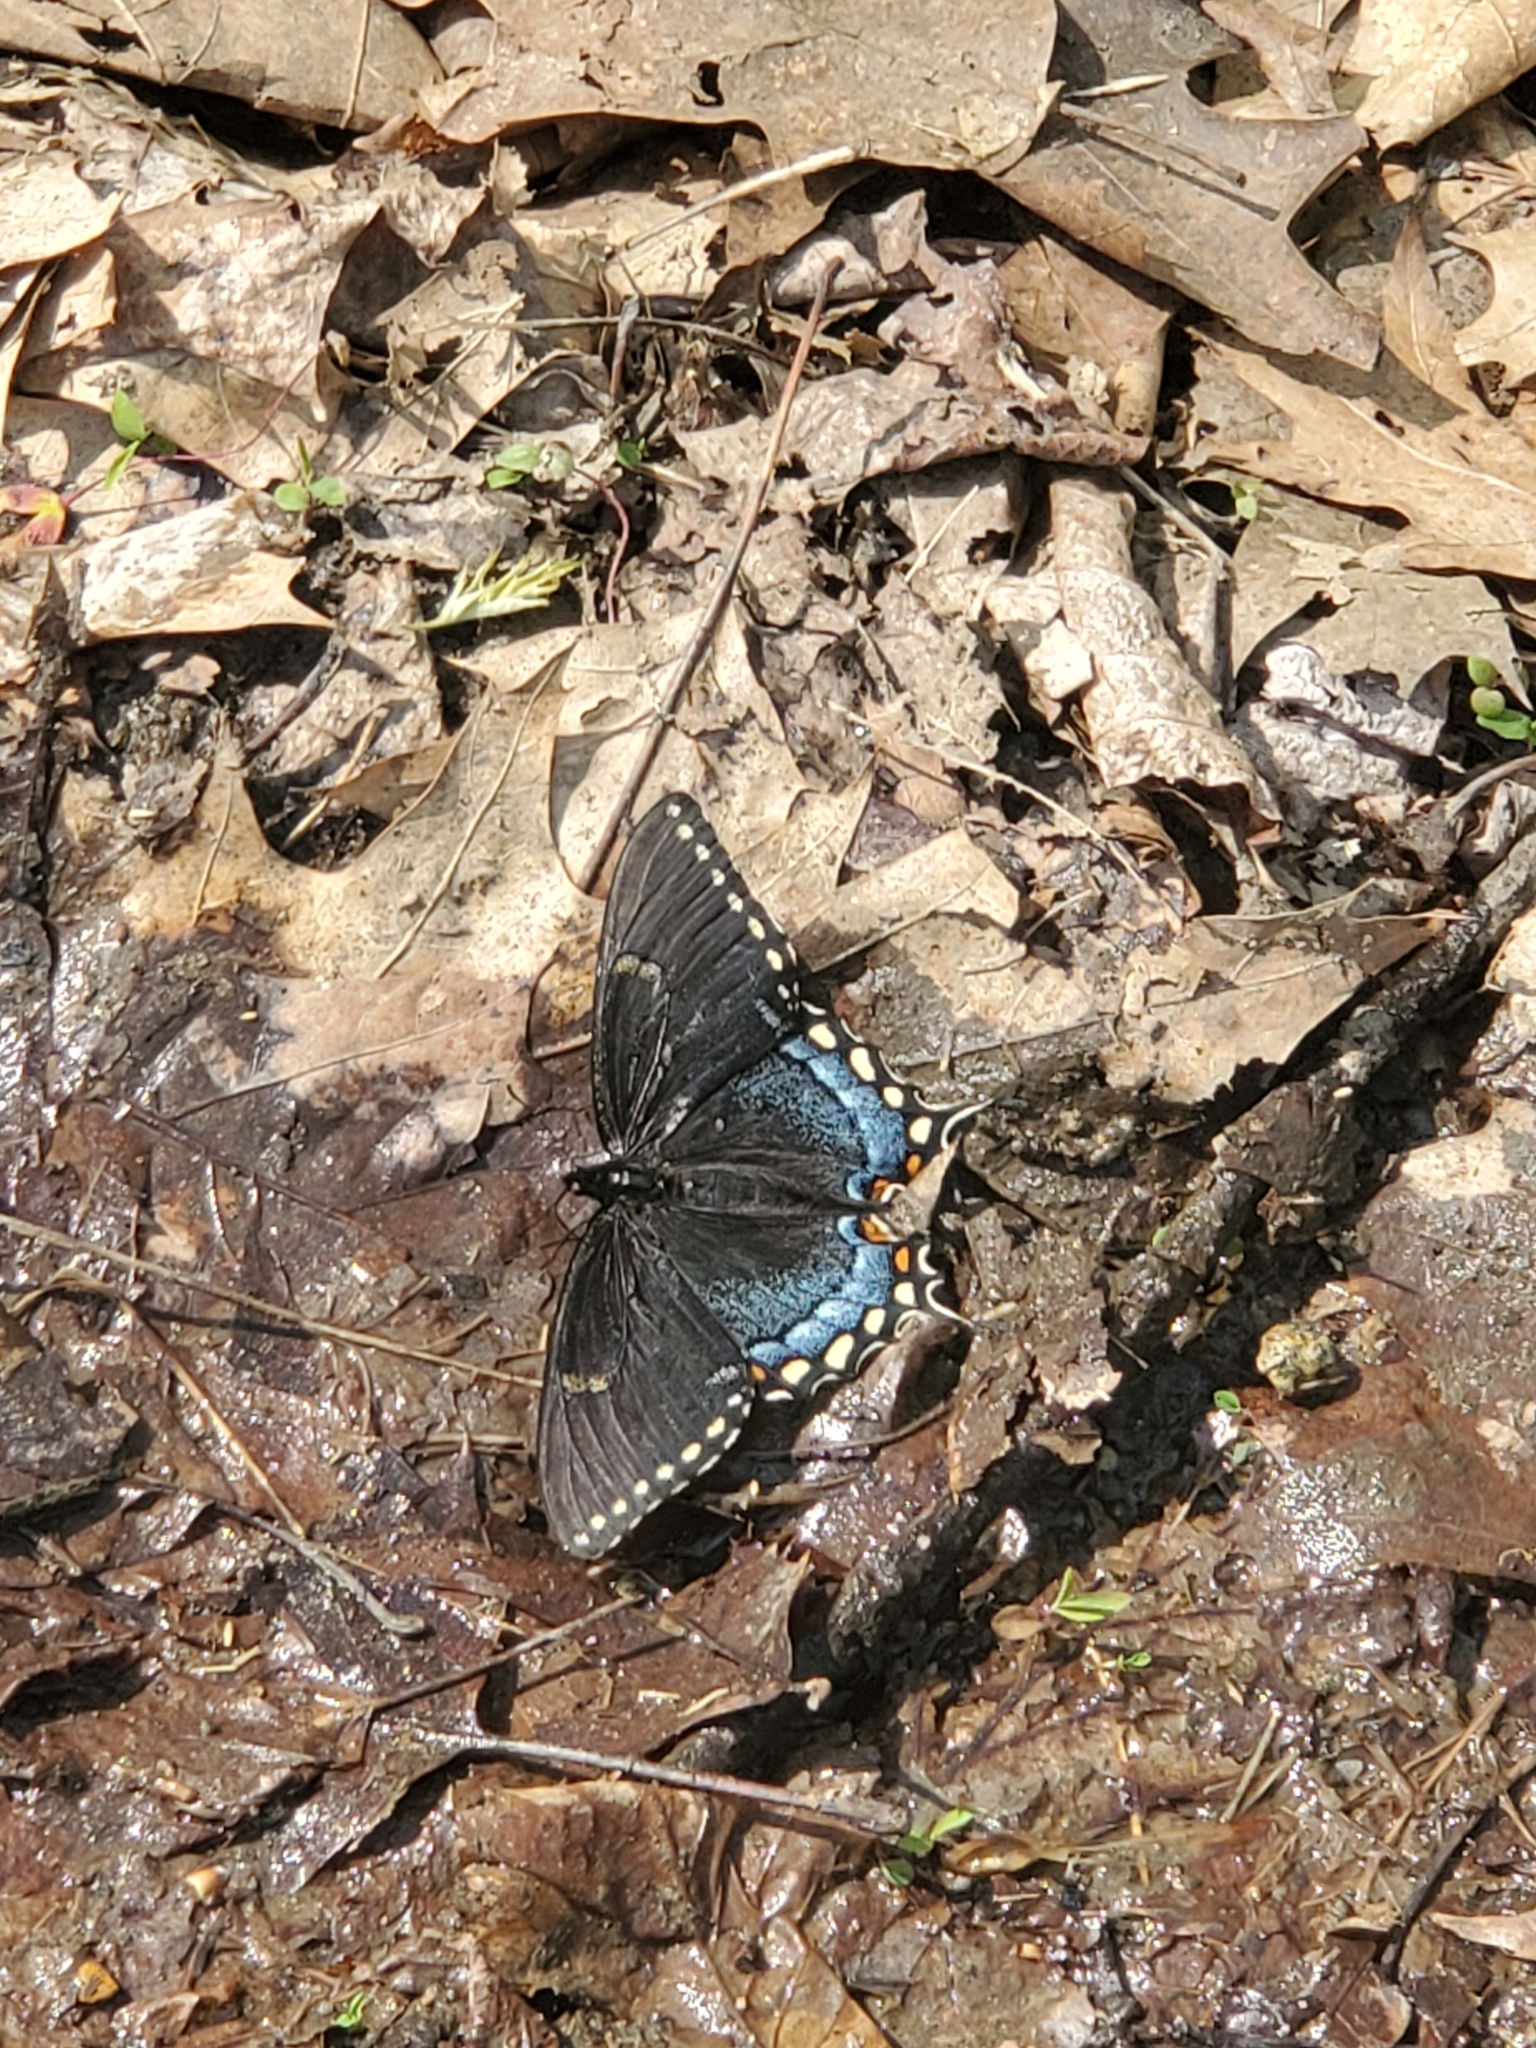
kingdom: Animalia
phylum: Arthropoda
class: Insecta
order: Lepidoptera
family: Papilionidae
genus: Papilio
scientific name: Papilio glaucus
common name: Tiger swallowtail
